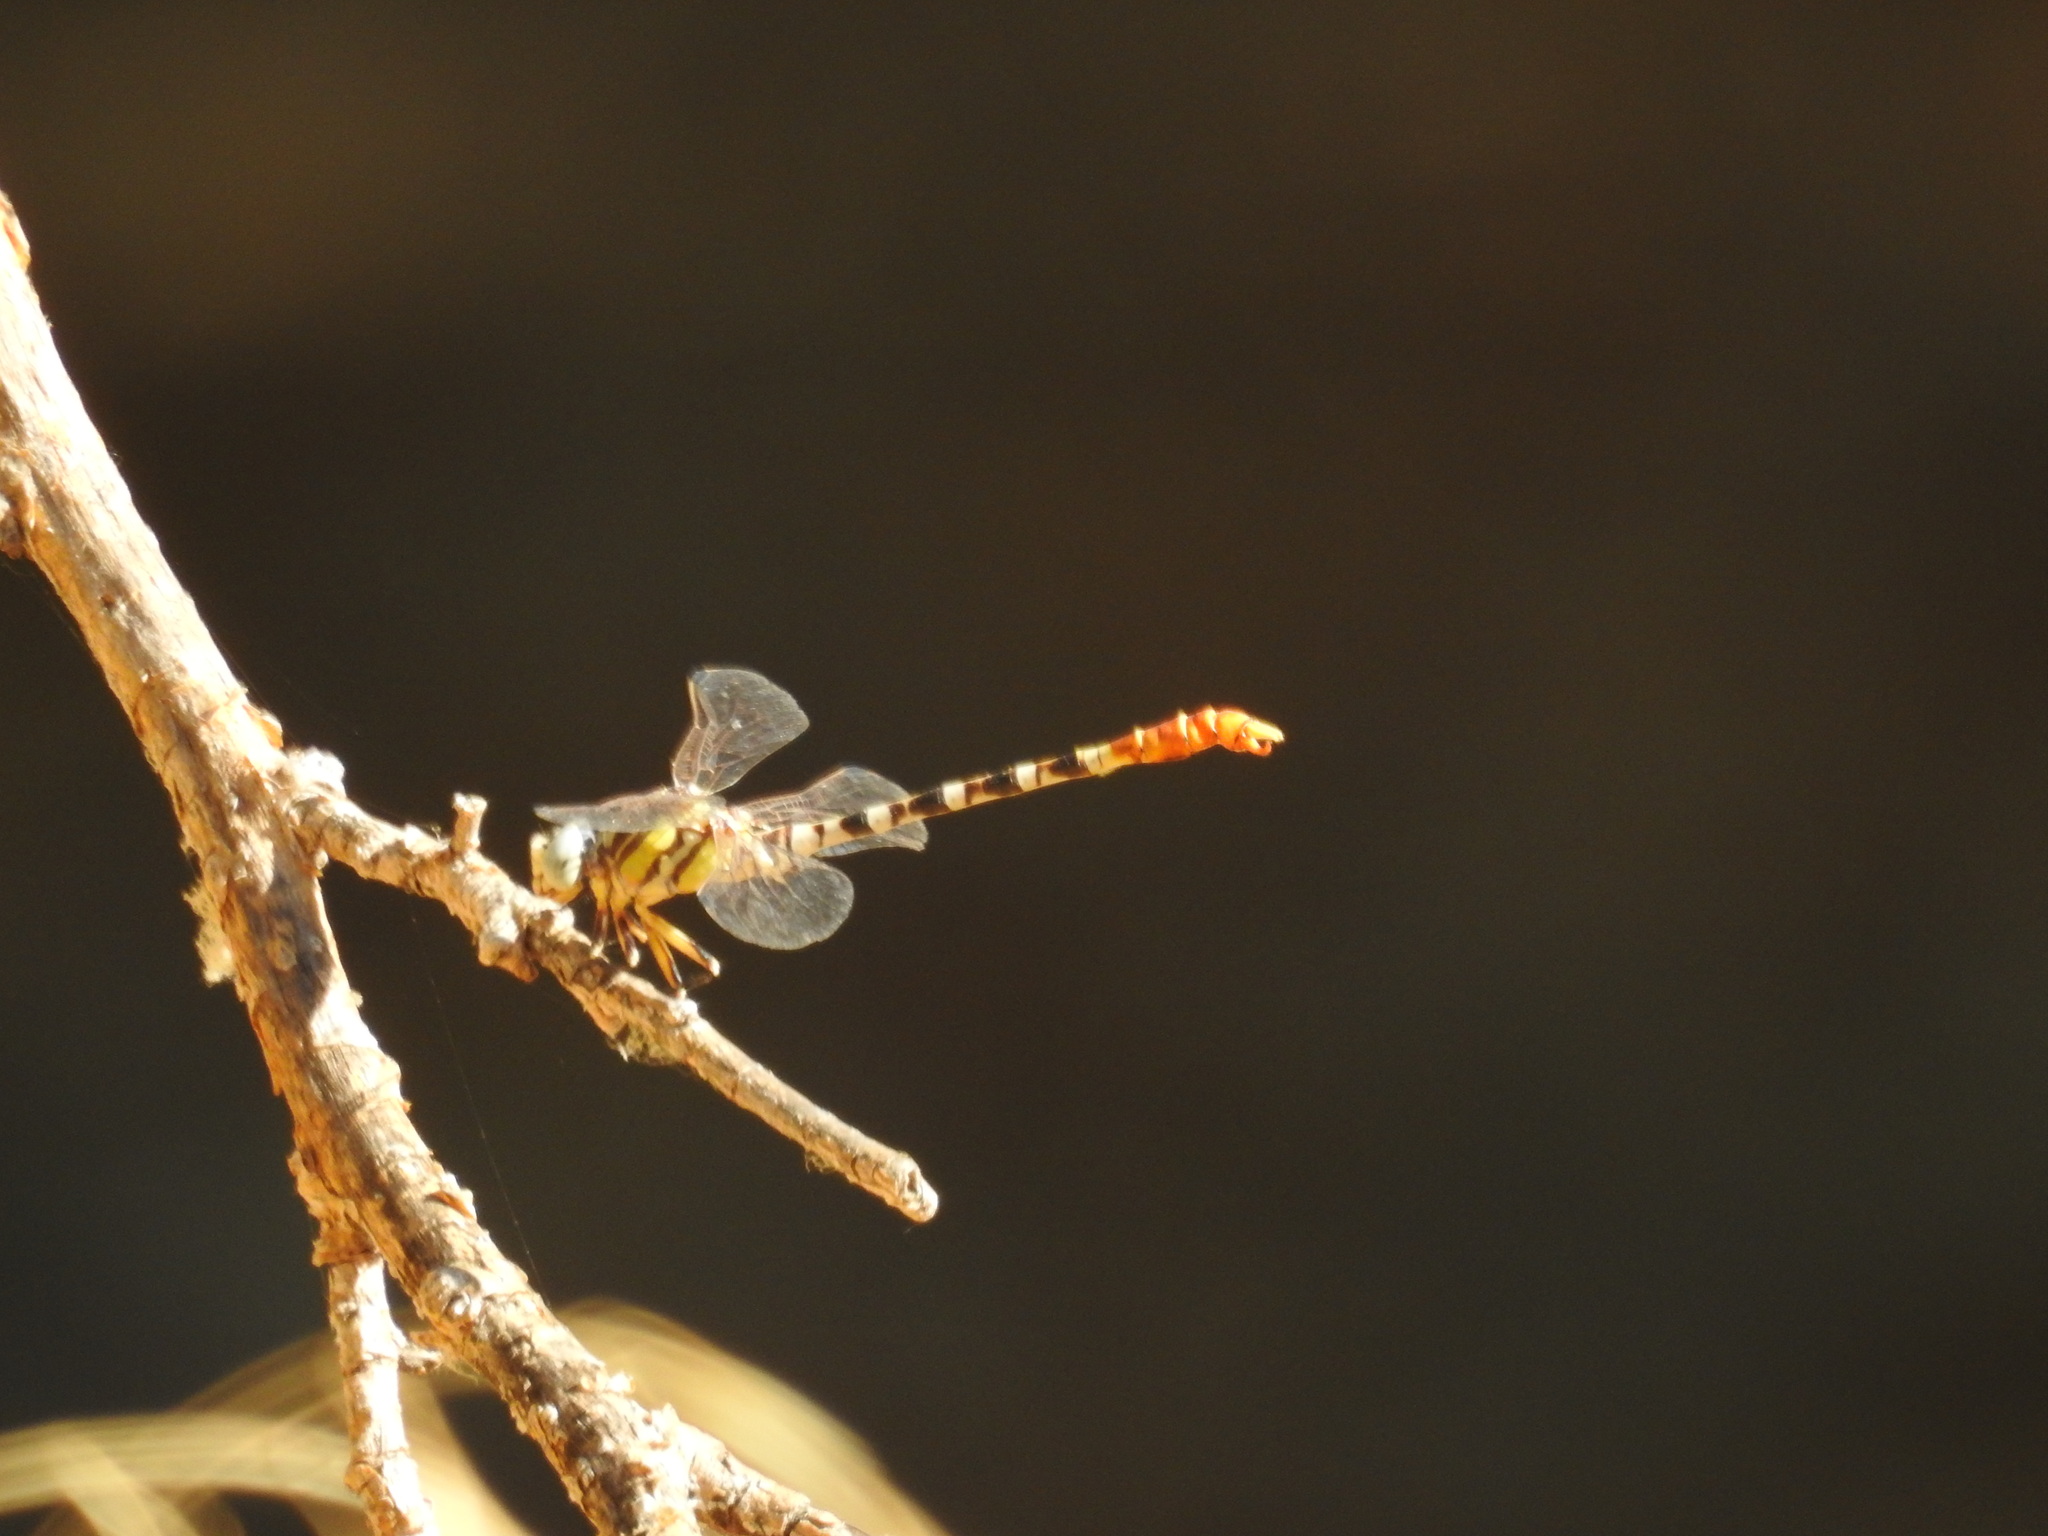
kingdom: Animalia
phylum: Arthropoda
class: Insecta
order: Odonata
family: Gomphidae
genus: Erpetogomphus
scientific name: Erpetogomphus compositus
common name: White-belted ringtail
